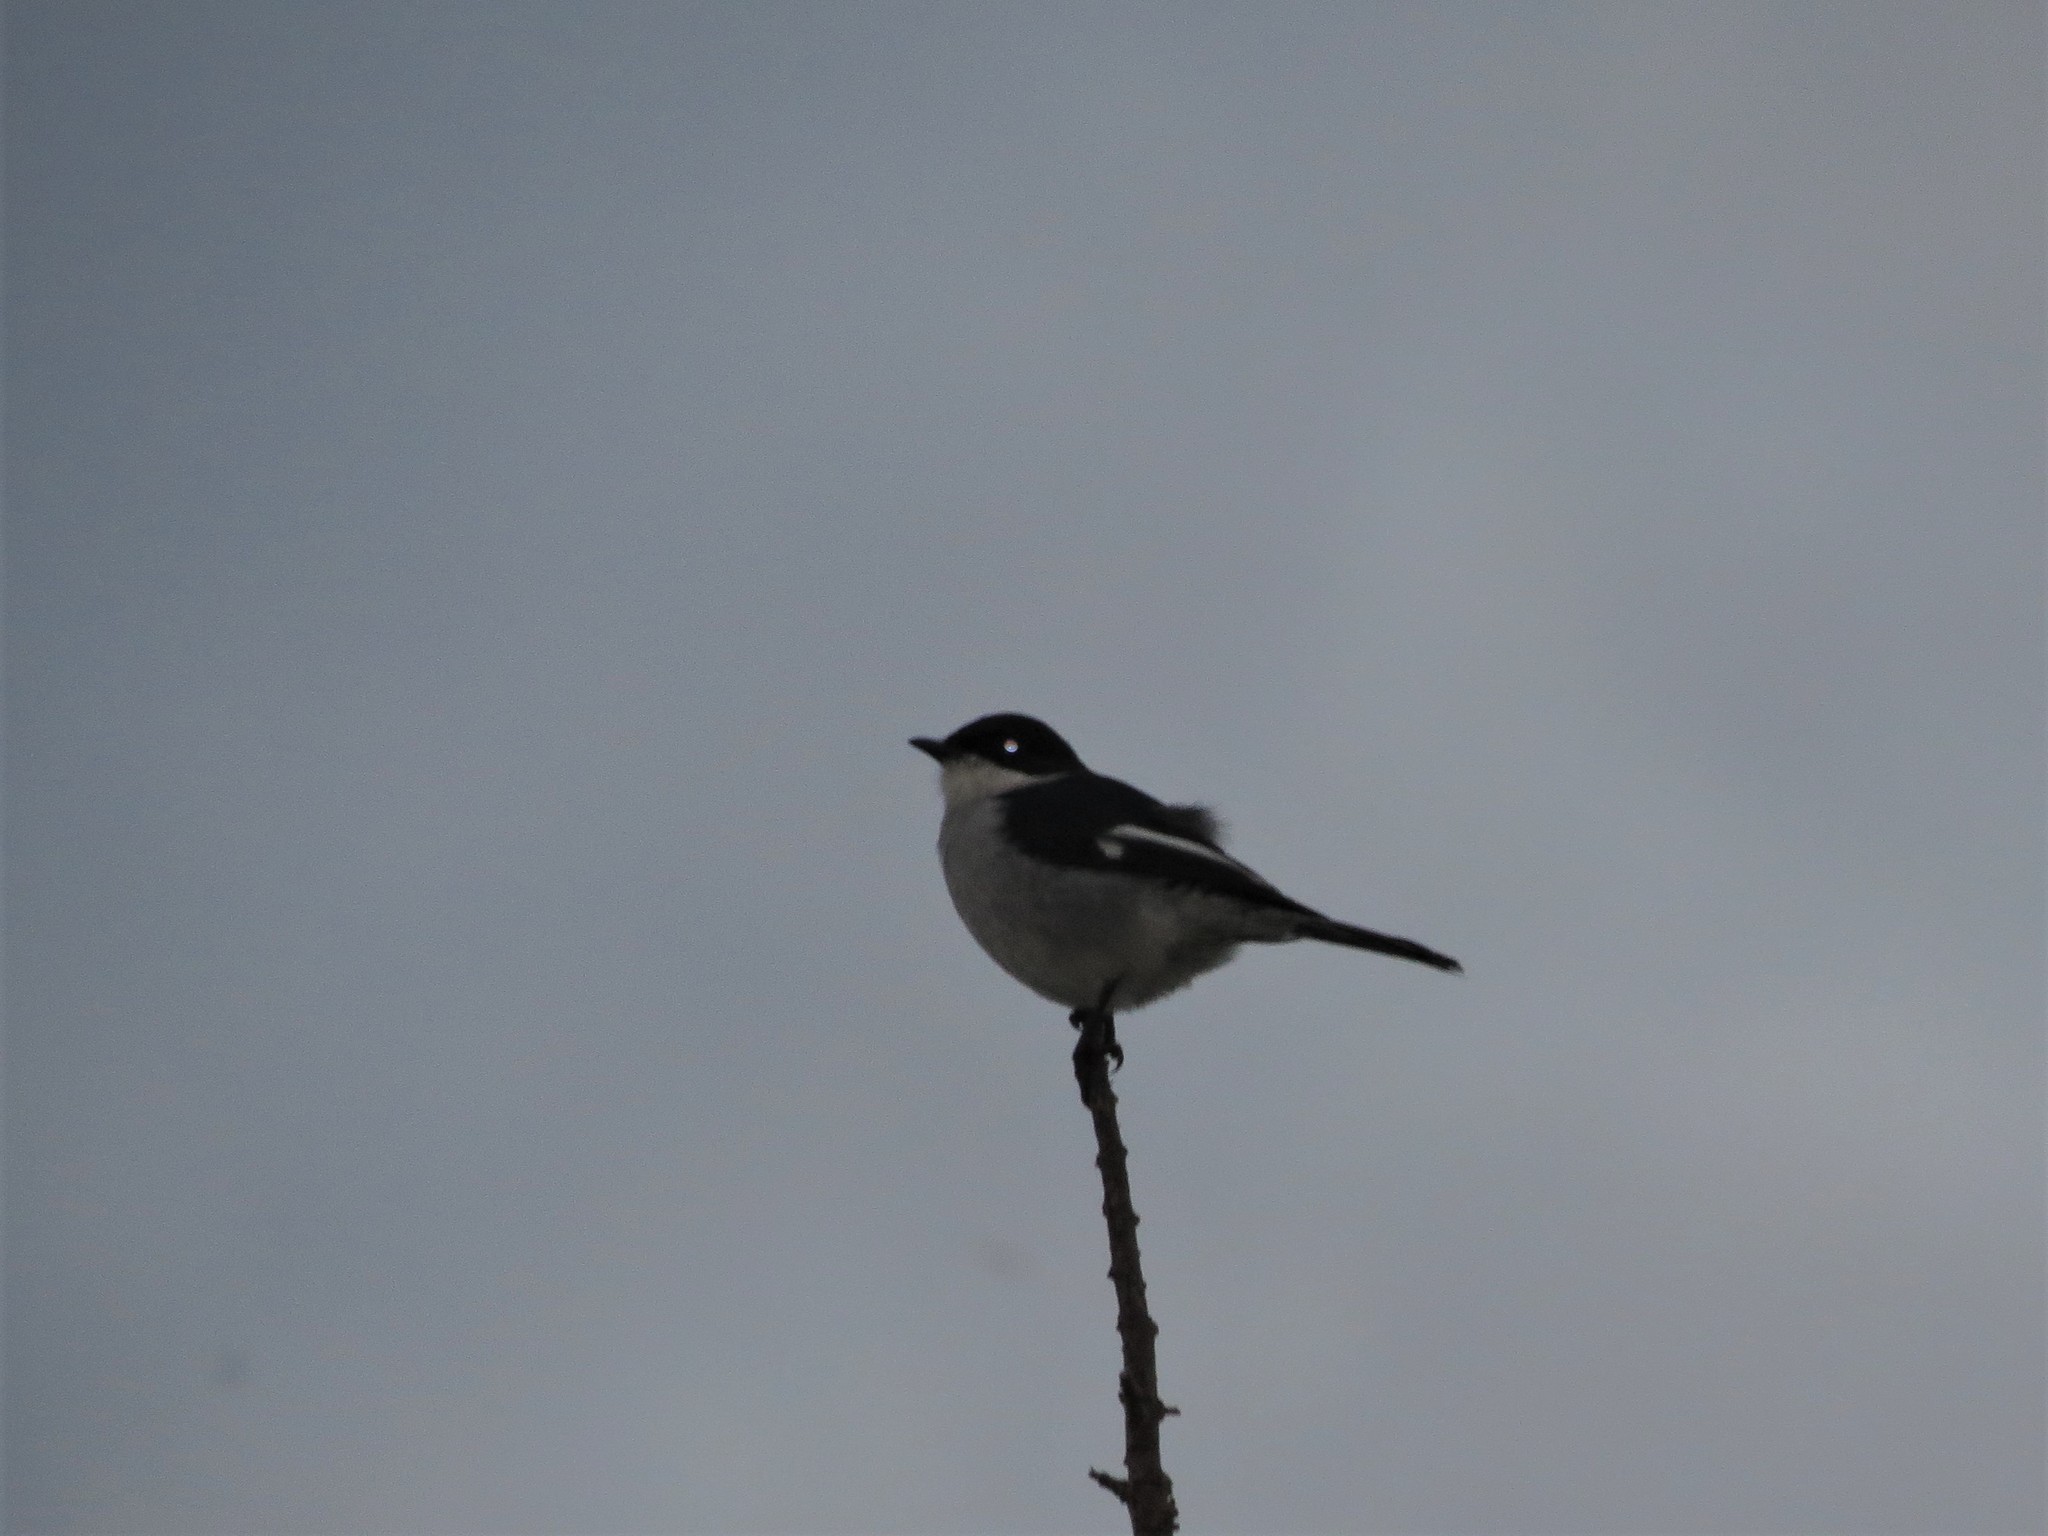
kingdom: Animalia
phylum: Chordata
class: Aves
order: Passeriformes
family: Muscicapidae
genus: Sigelus
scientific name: Sigelus silens
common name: Fiscal flycatcher
